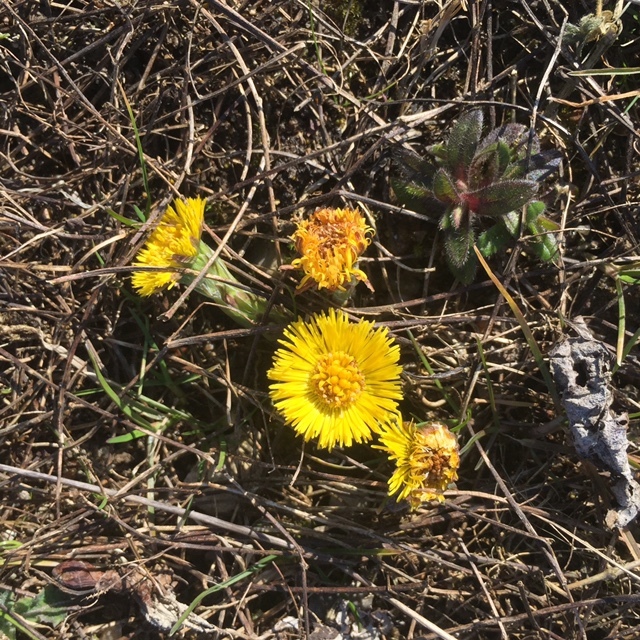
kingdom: Plantae
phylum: Tracheophyta
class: Magnoliopsida
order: Asterales
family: Asteraceae
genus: Tussilago
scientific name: Tussilago farfara
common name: Coltsfoot
